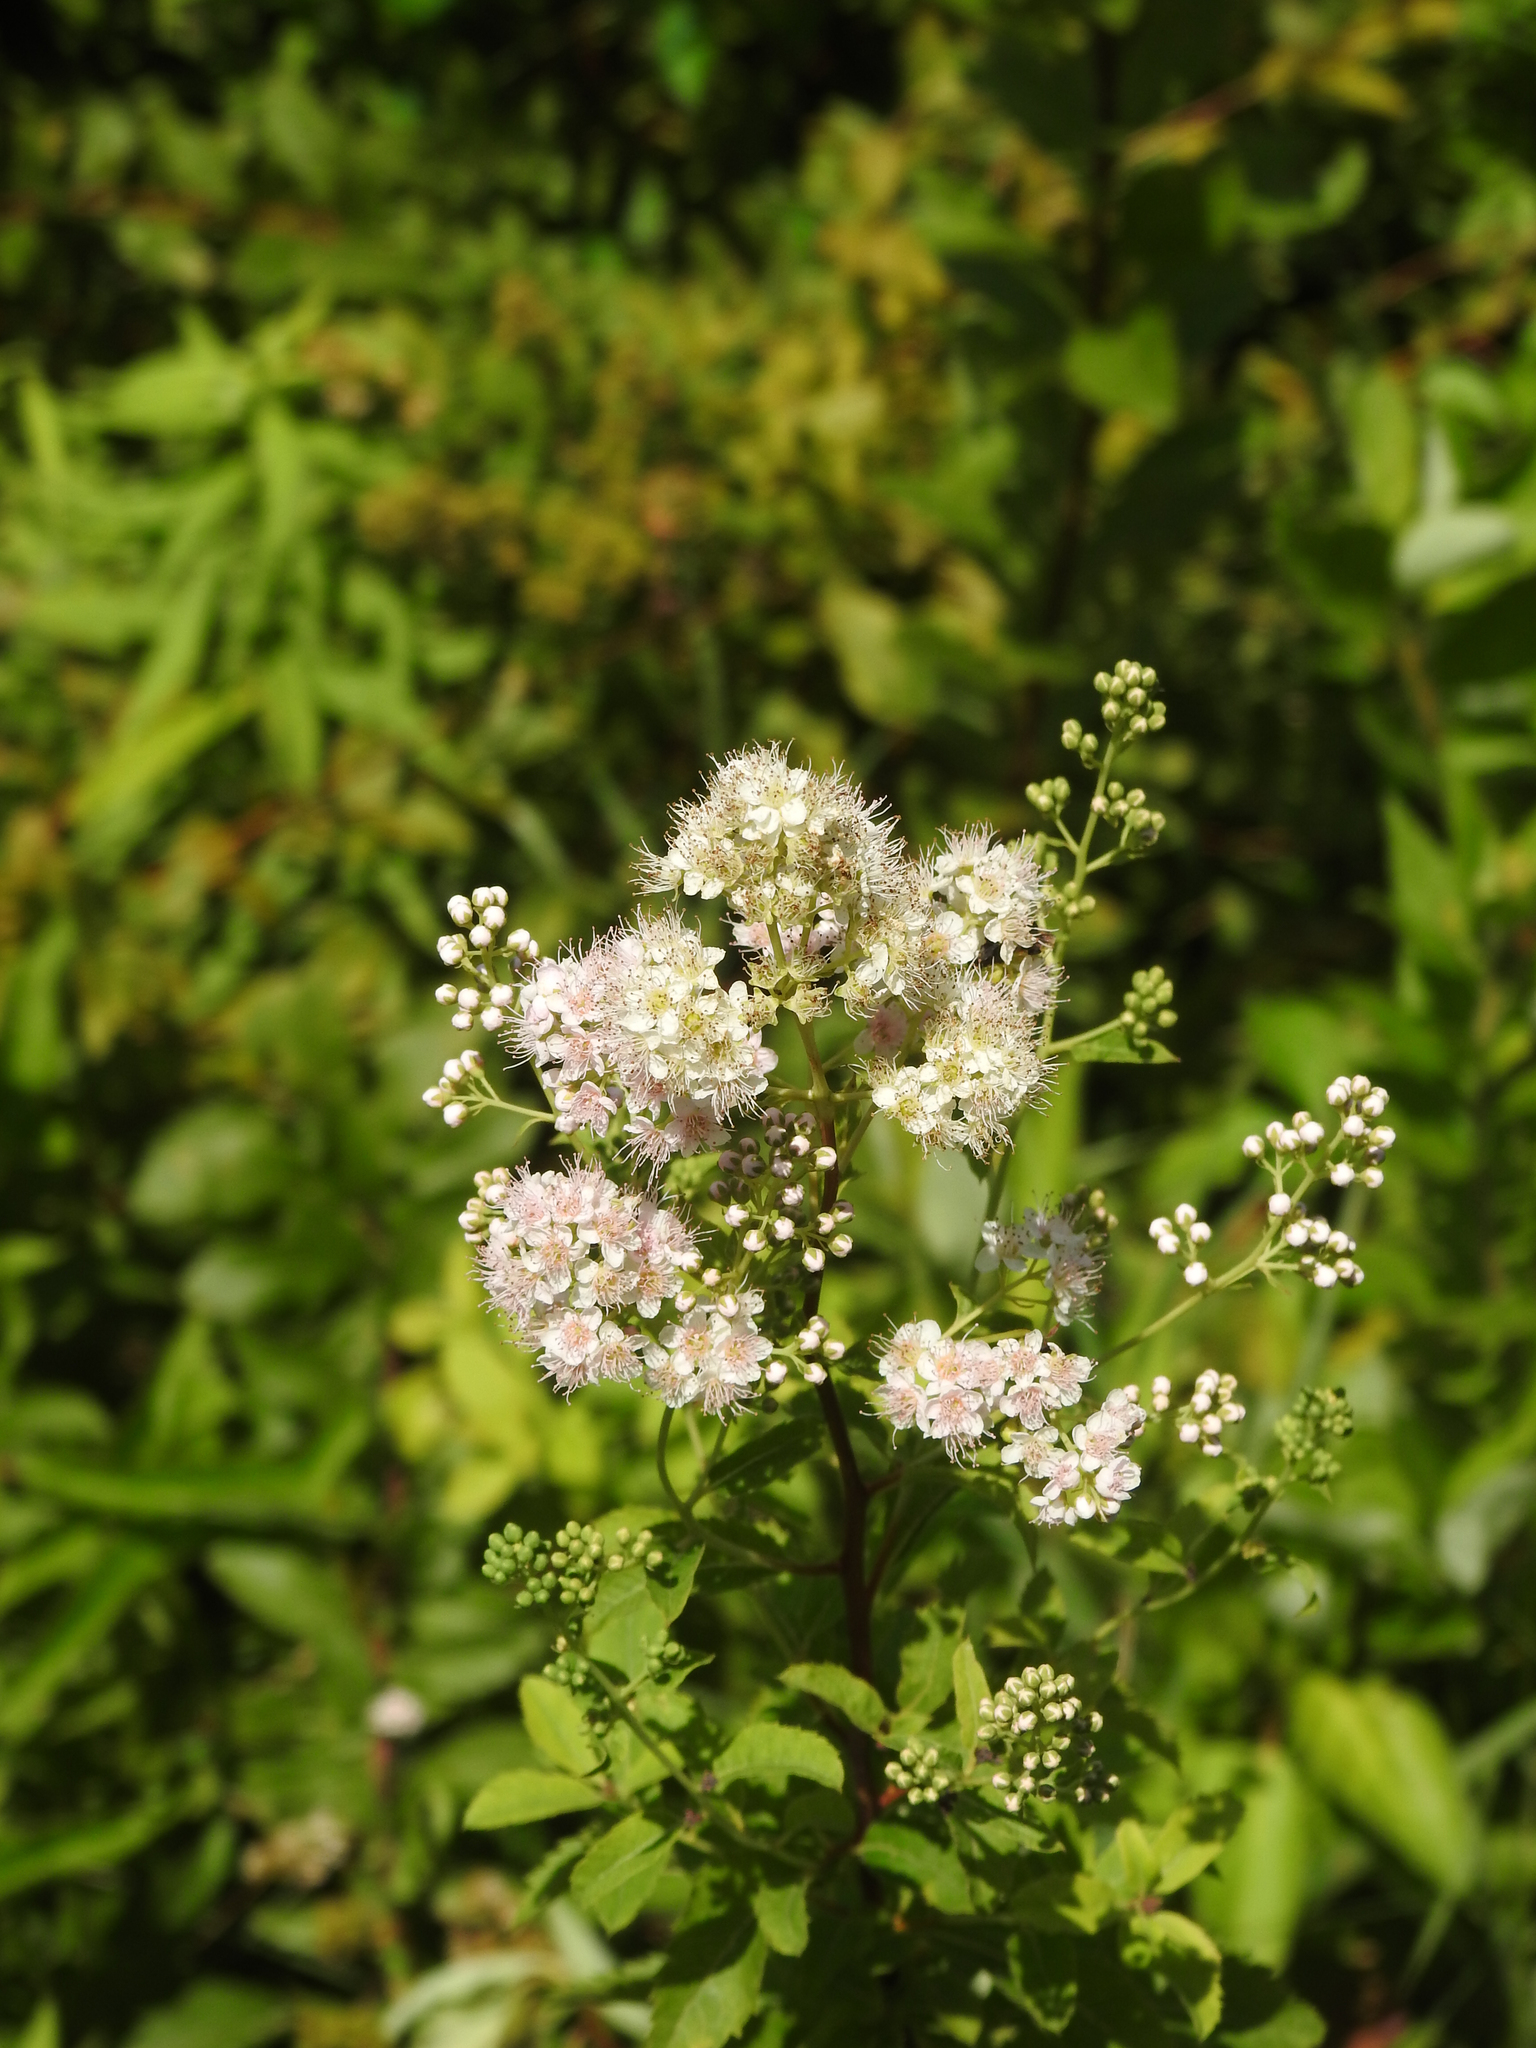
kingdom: Plantae
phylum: Tracheophyta
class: Magnoliopsida
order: Rosales
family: Rosaceae
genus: Spiraea
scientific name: Spiraea alba
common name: Pale bridewort
